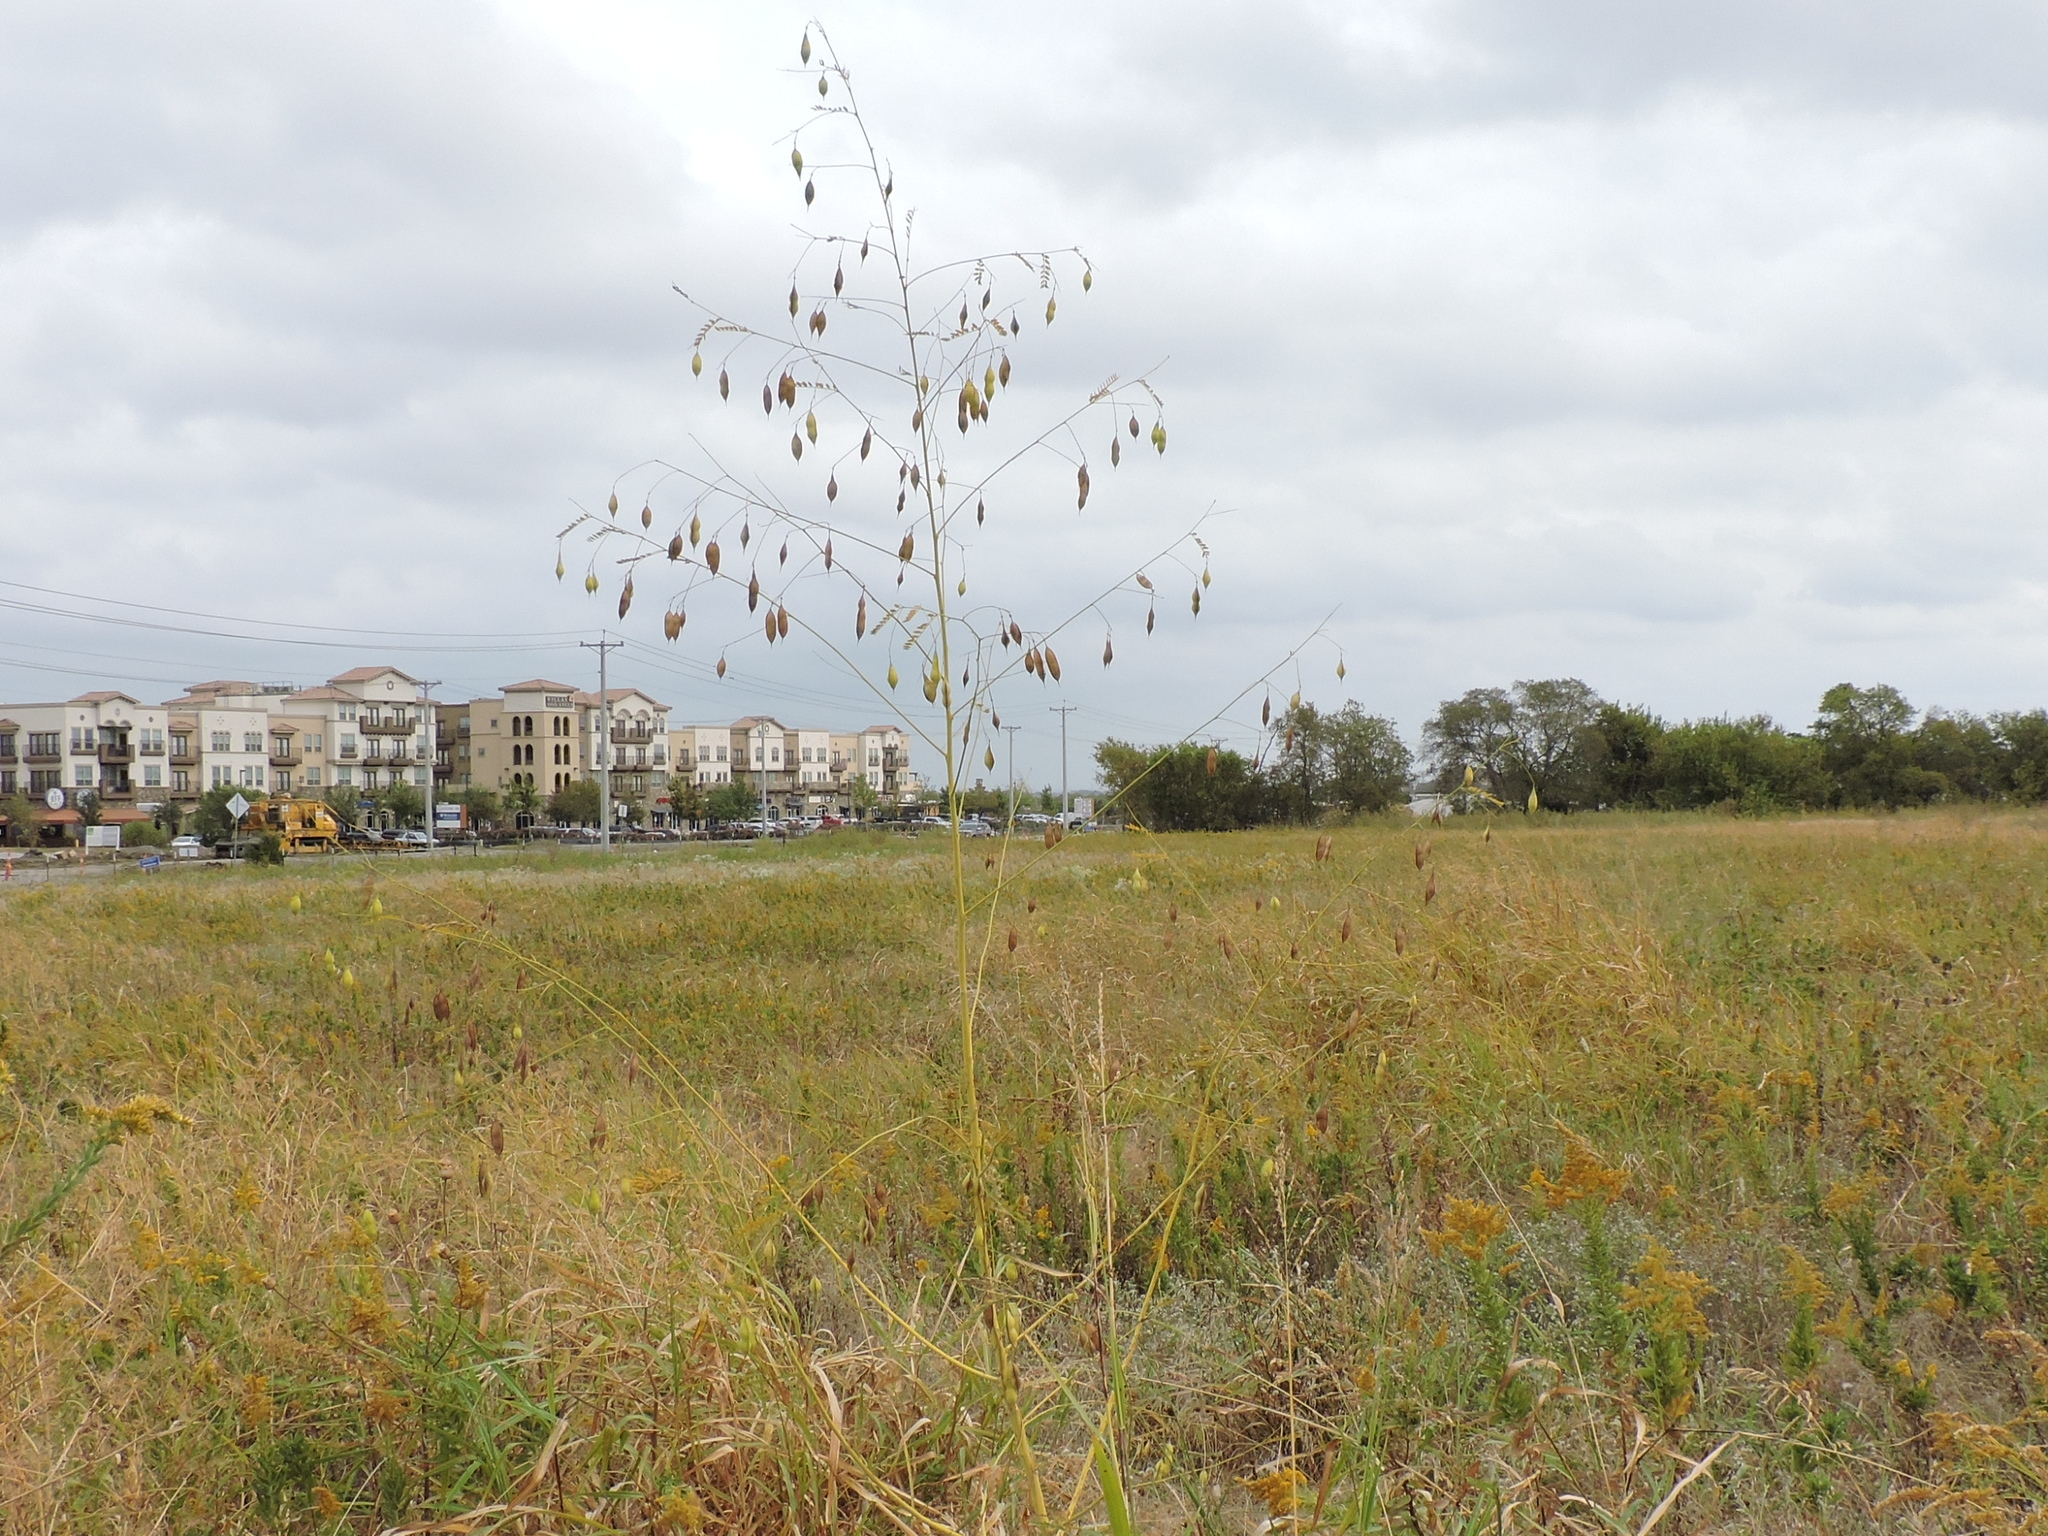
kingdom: Plantae
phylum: Tracheophyta
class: Magnoliopsida
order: Fabales
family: Fabaceae
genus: Sesbania
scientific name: Sesbania vesicaria
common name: Bagpod
